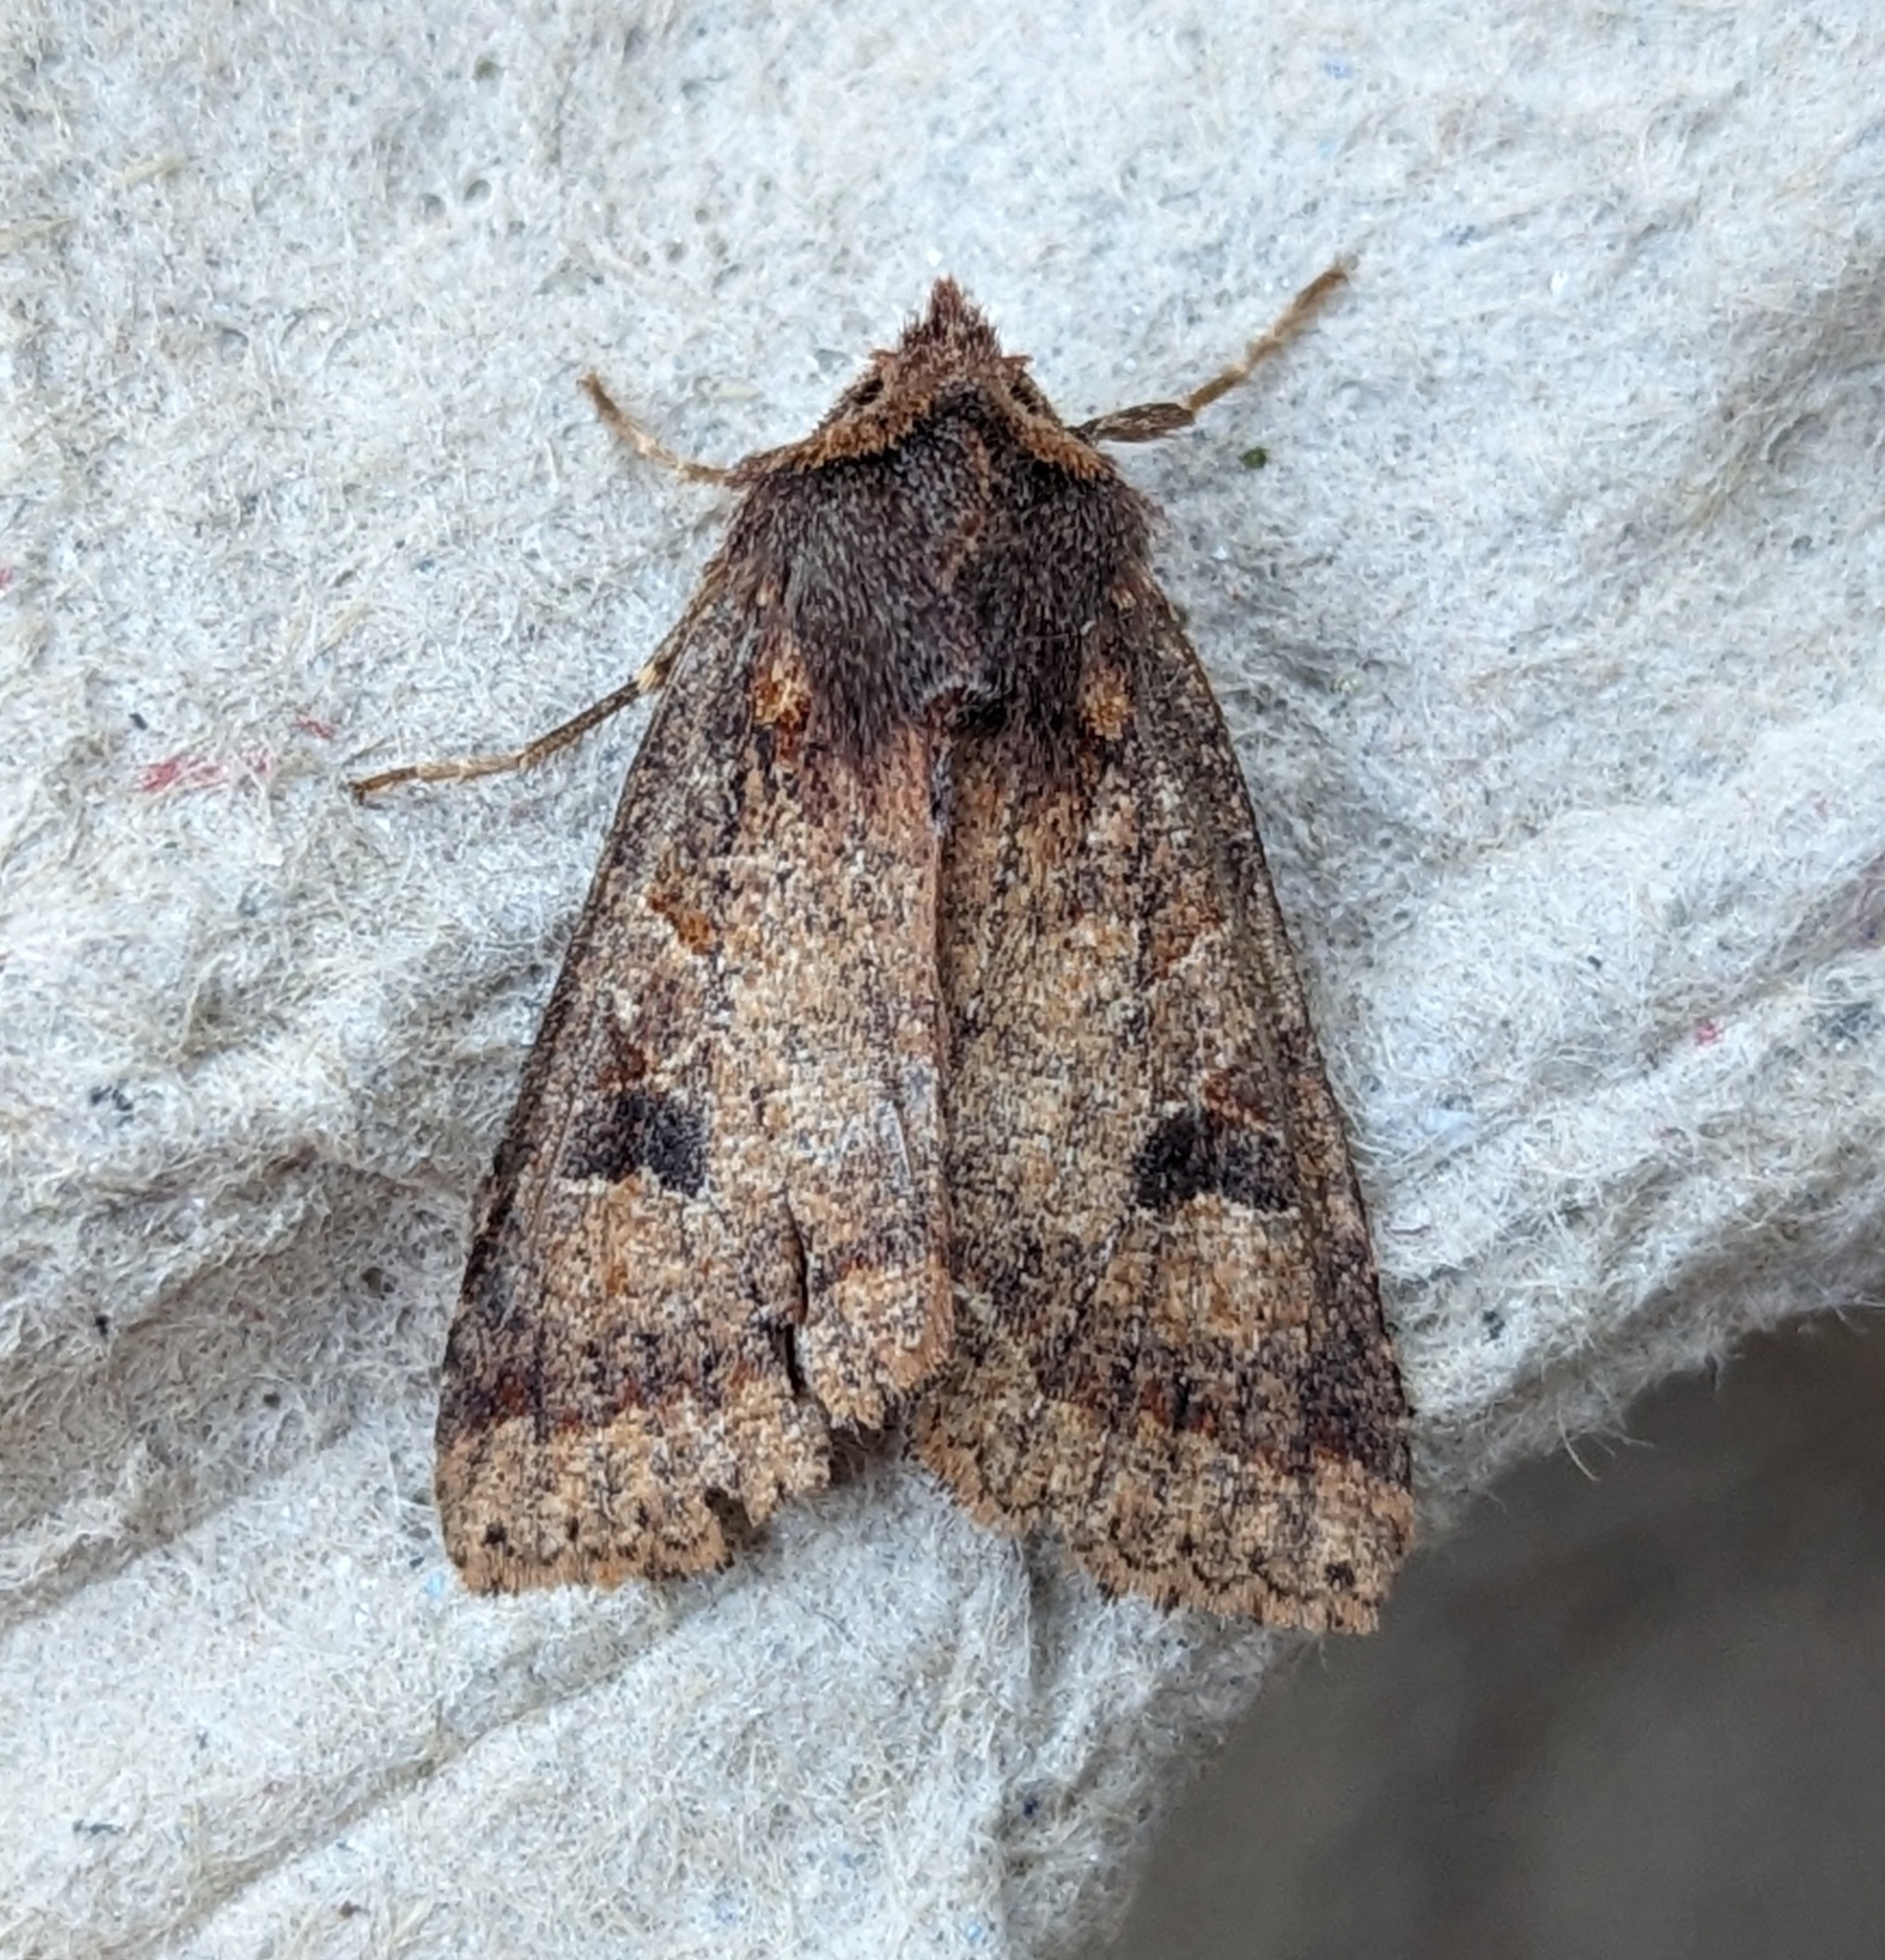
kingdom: Animalia
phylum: Arthropoda
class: Insecta
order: Lepidoptera
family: Noctuidae
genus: Orthosia
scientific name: Orthosia praeses
